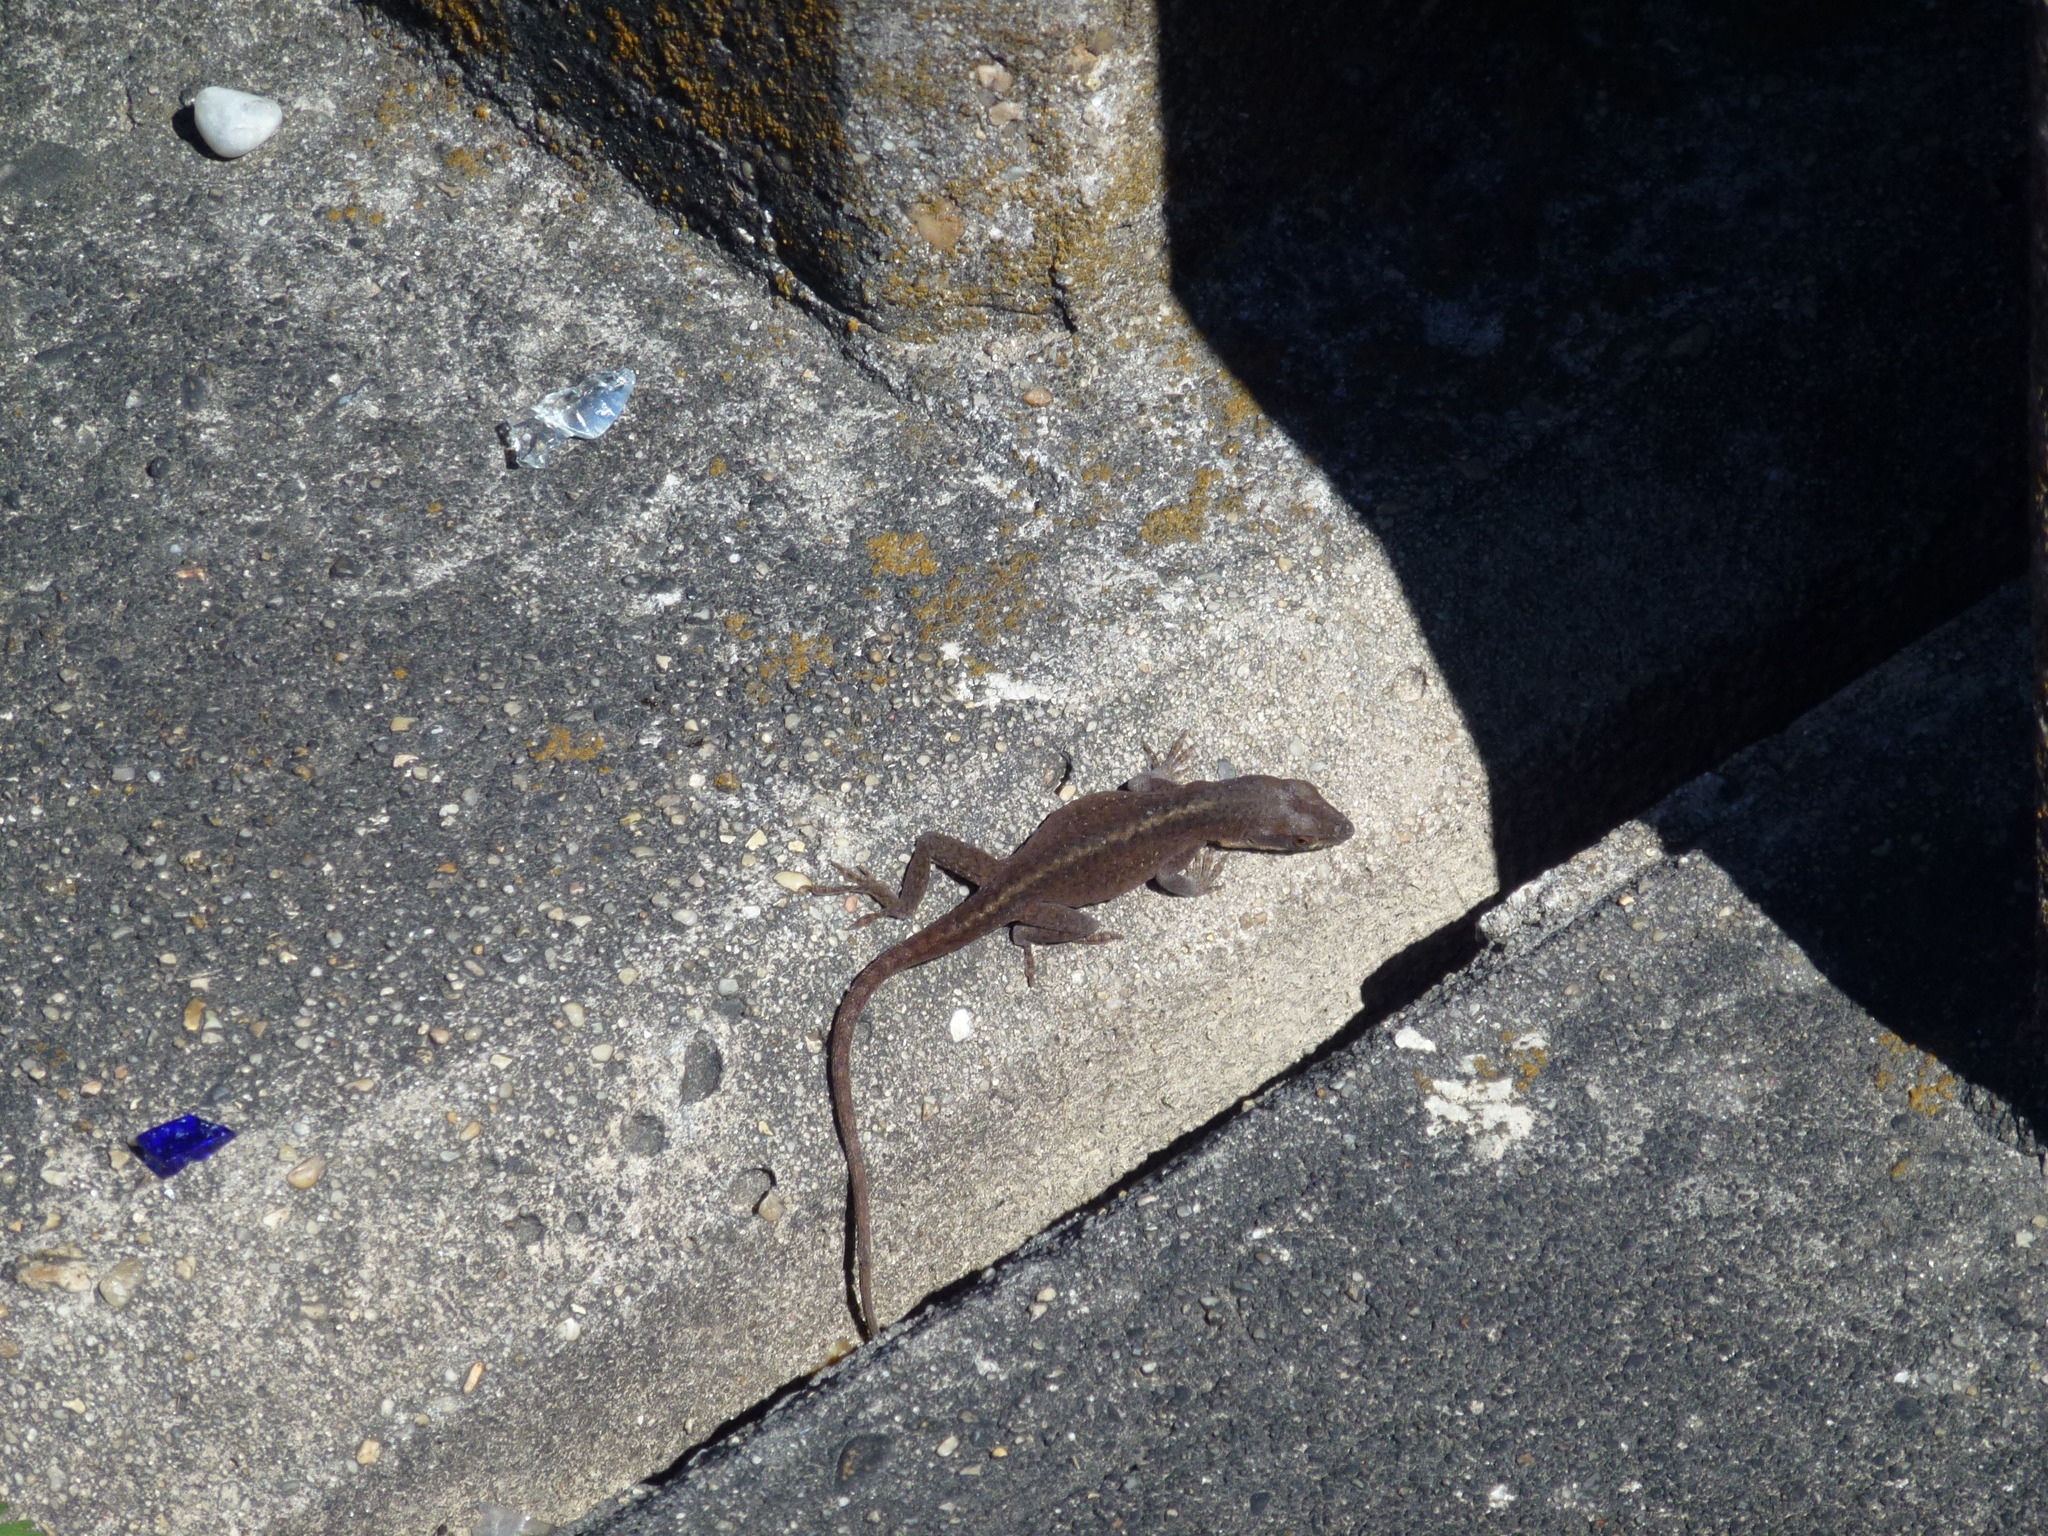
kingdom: Animalia
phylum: Chordata
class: Squamata
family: Dactyloidae
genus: Anolis
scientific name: Anolis carolinensis
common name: Green anole
